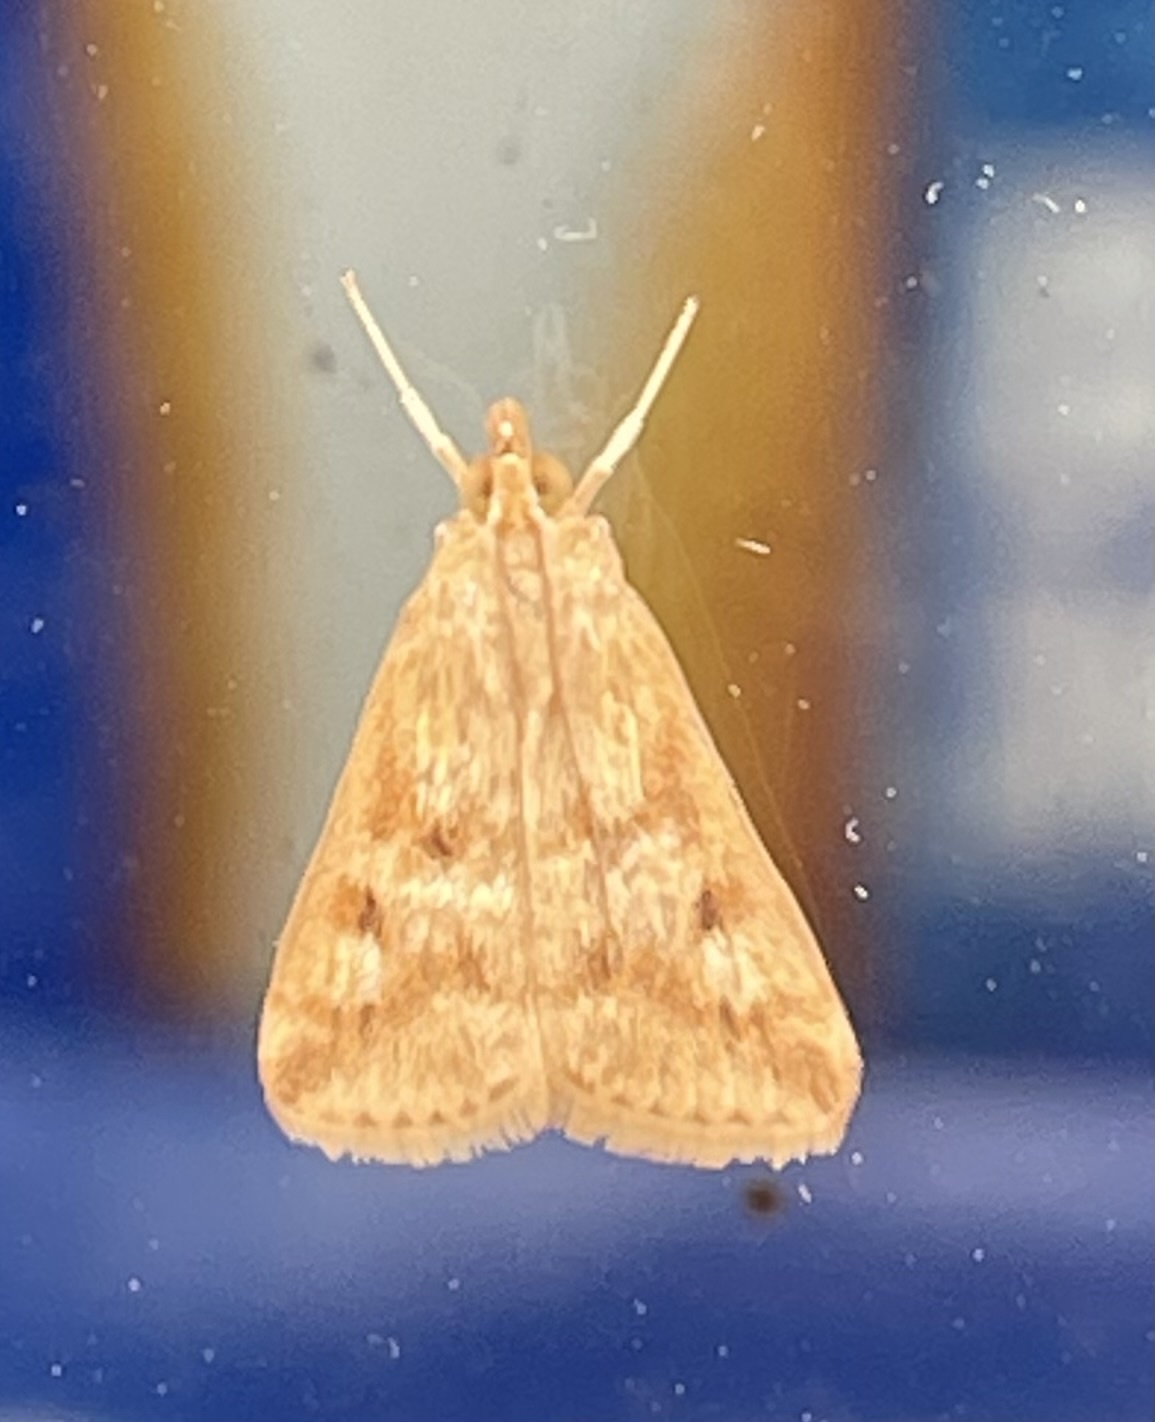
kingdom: Animalia
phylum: Arthropoda
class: Insecta
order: Lepidoptera
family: Crambidae
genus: Achyra
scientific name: Achyra rantalis
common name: Garden webworm
